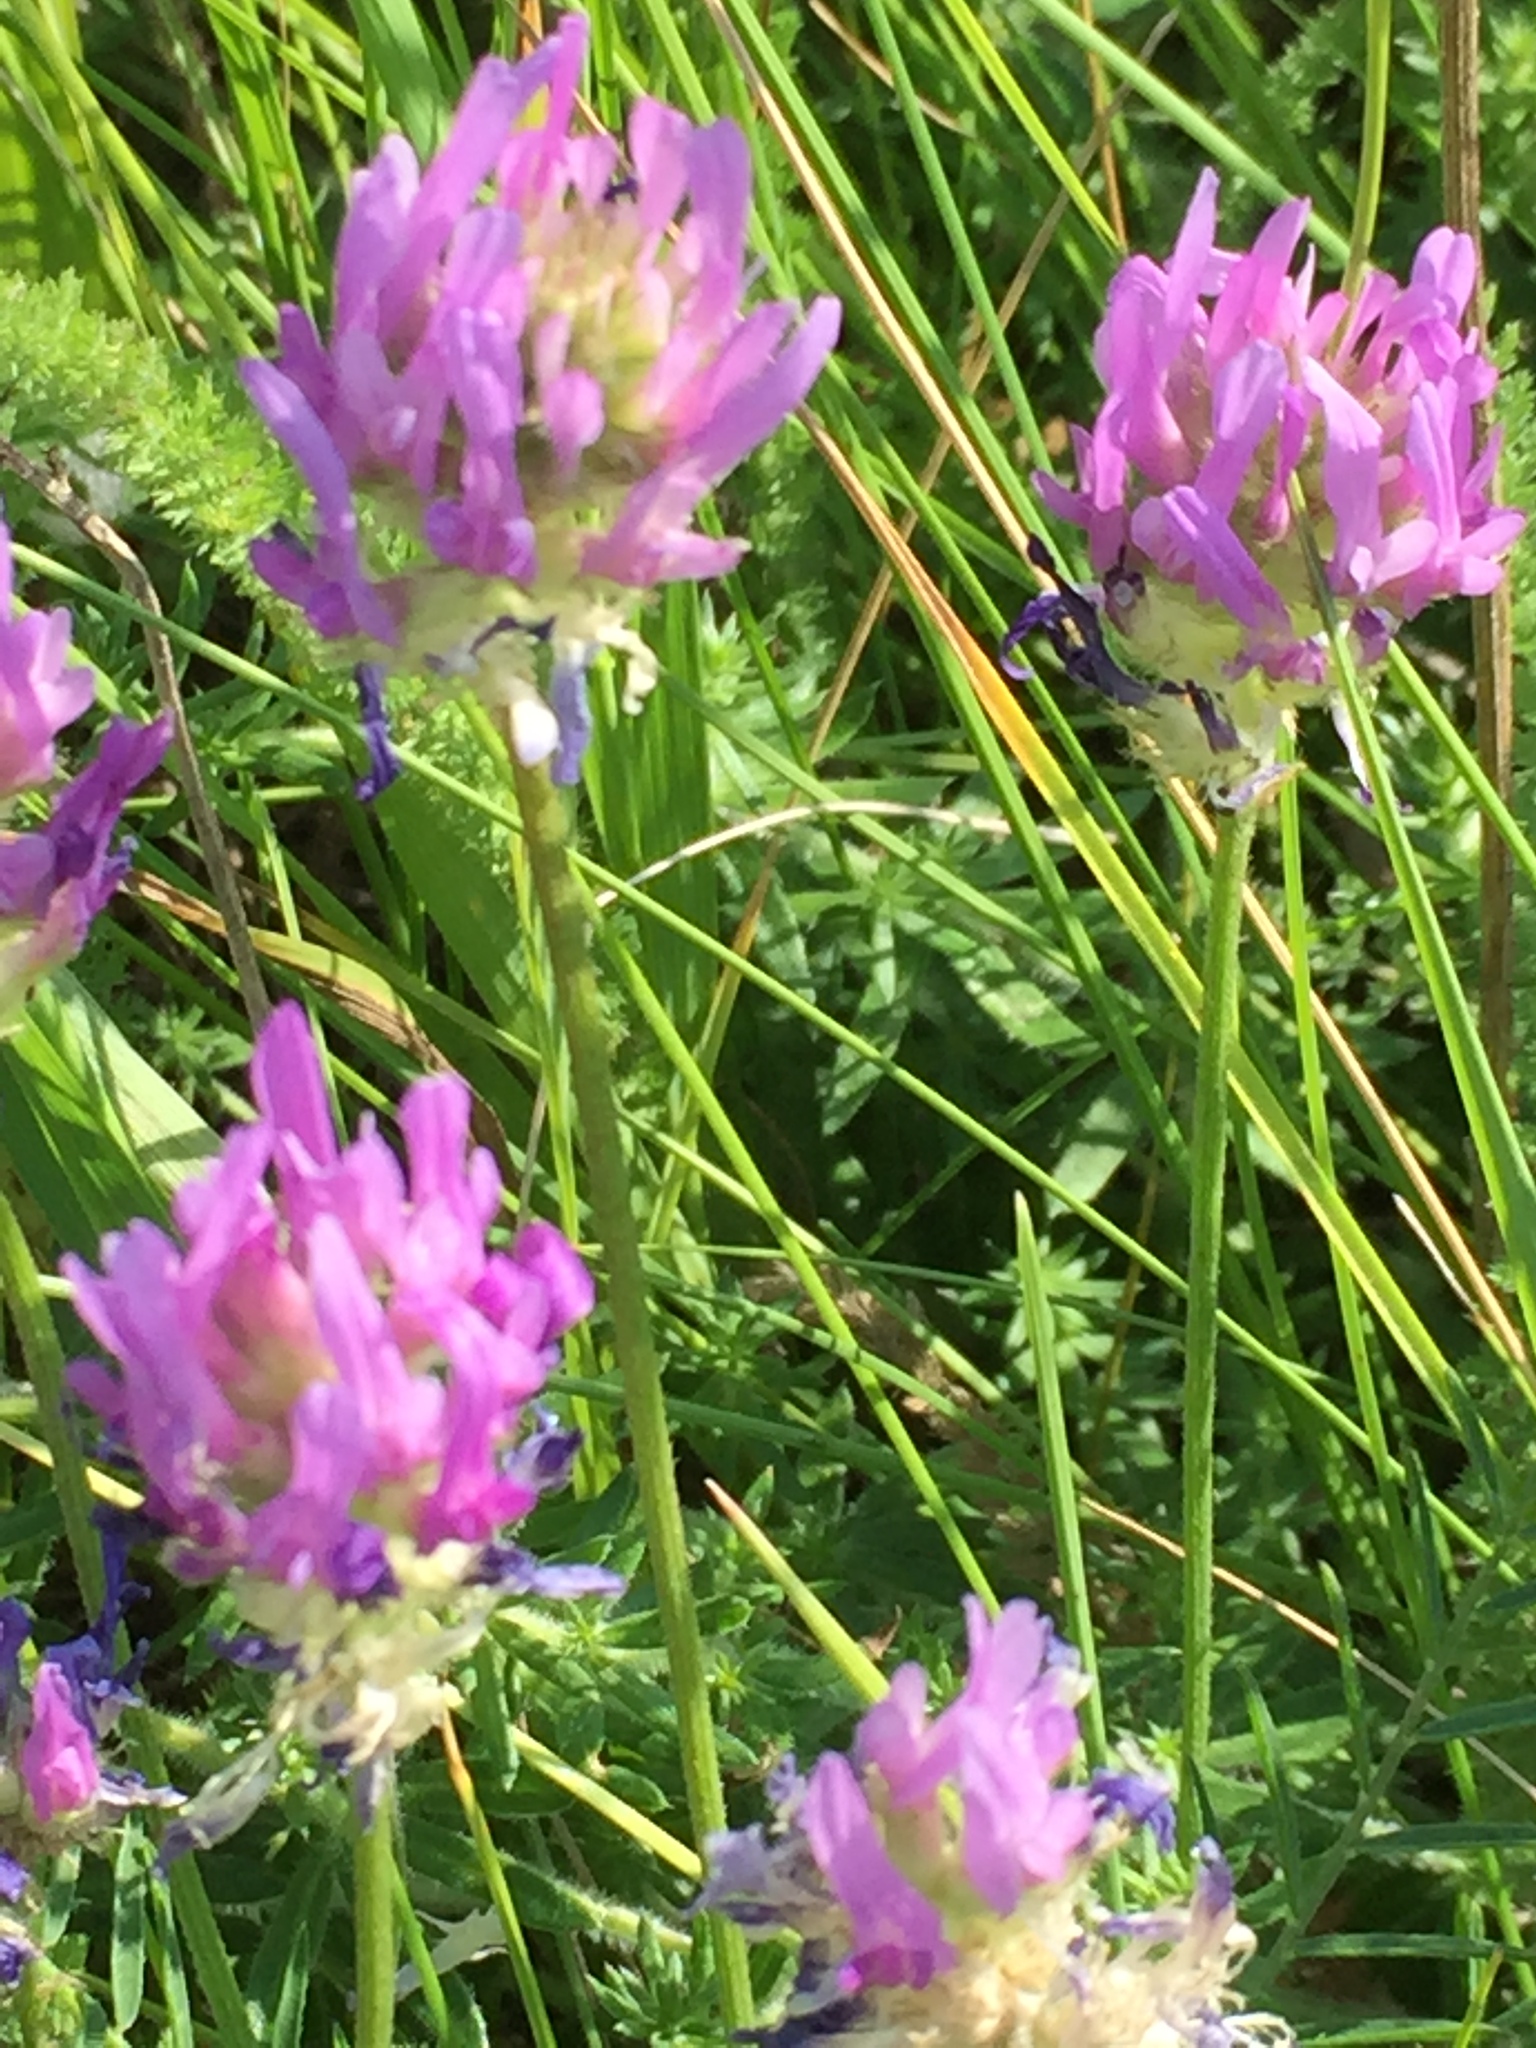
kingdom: Plantae
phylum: Tracheophyta
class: Magnoliopsida
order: Fabales
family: Fabaceae
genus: Astragalus
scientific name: Astragalus onobrychis
